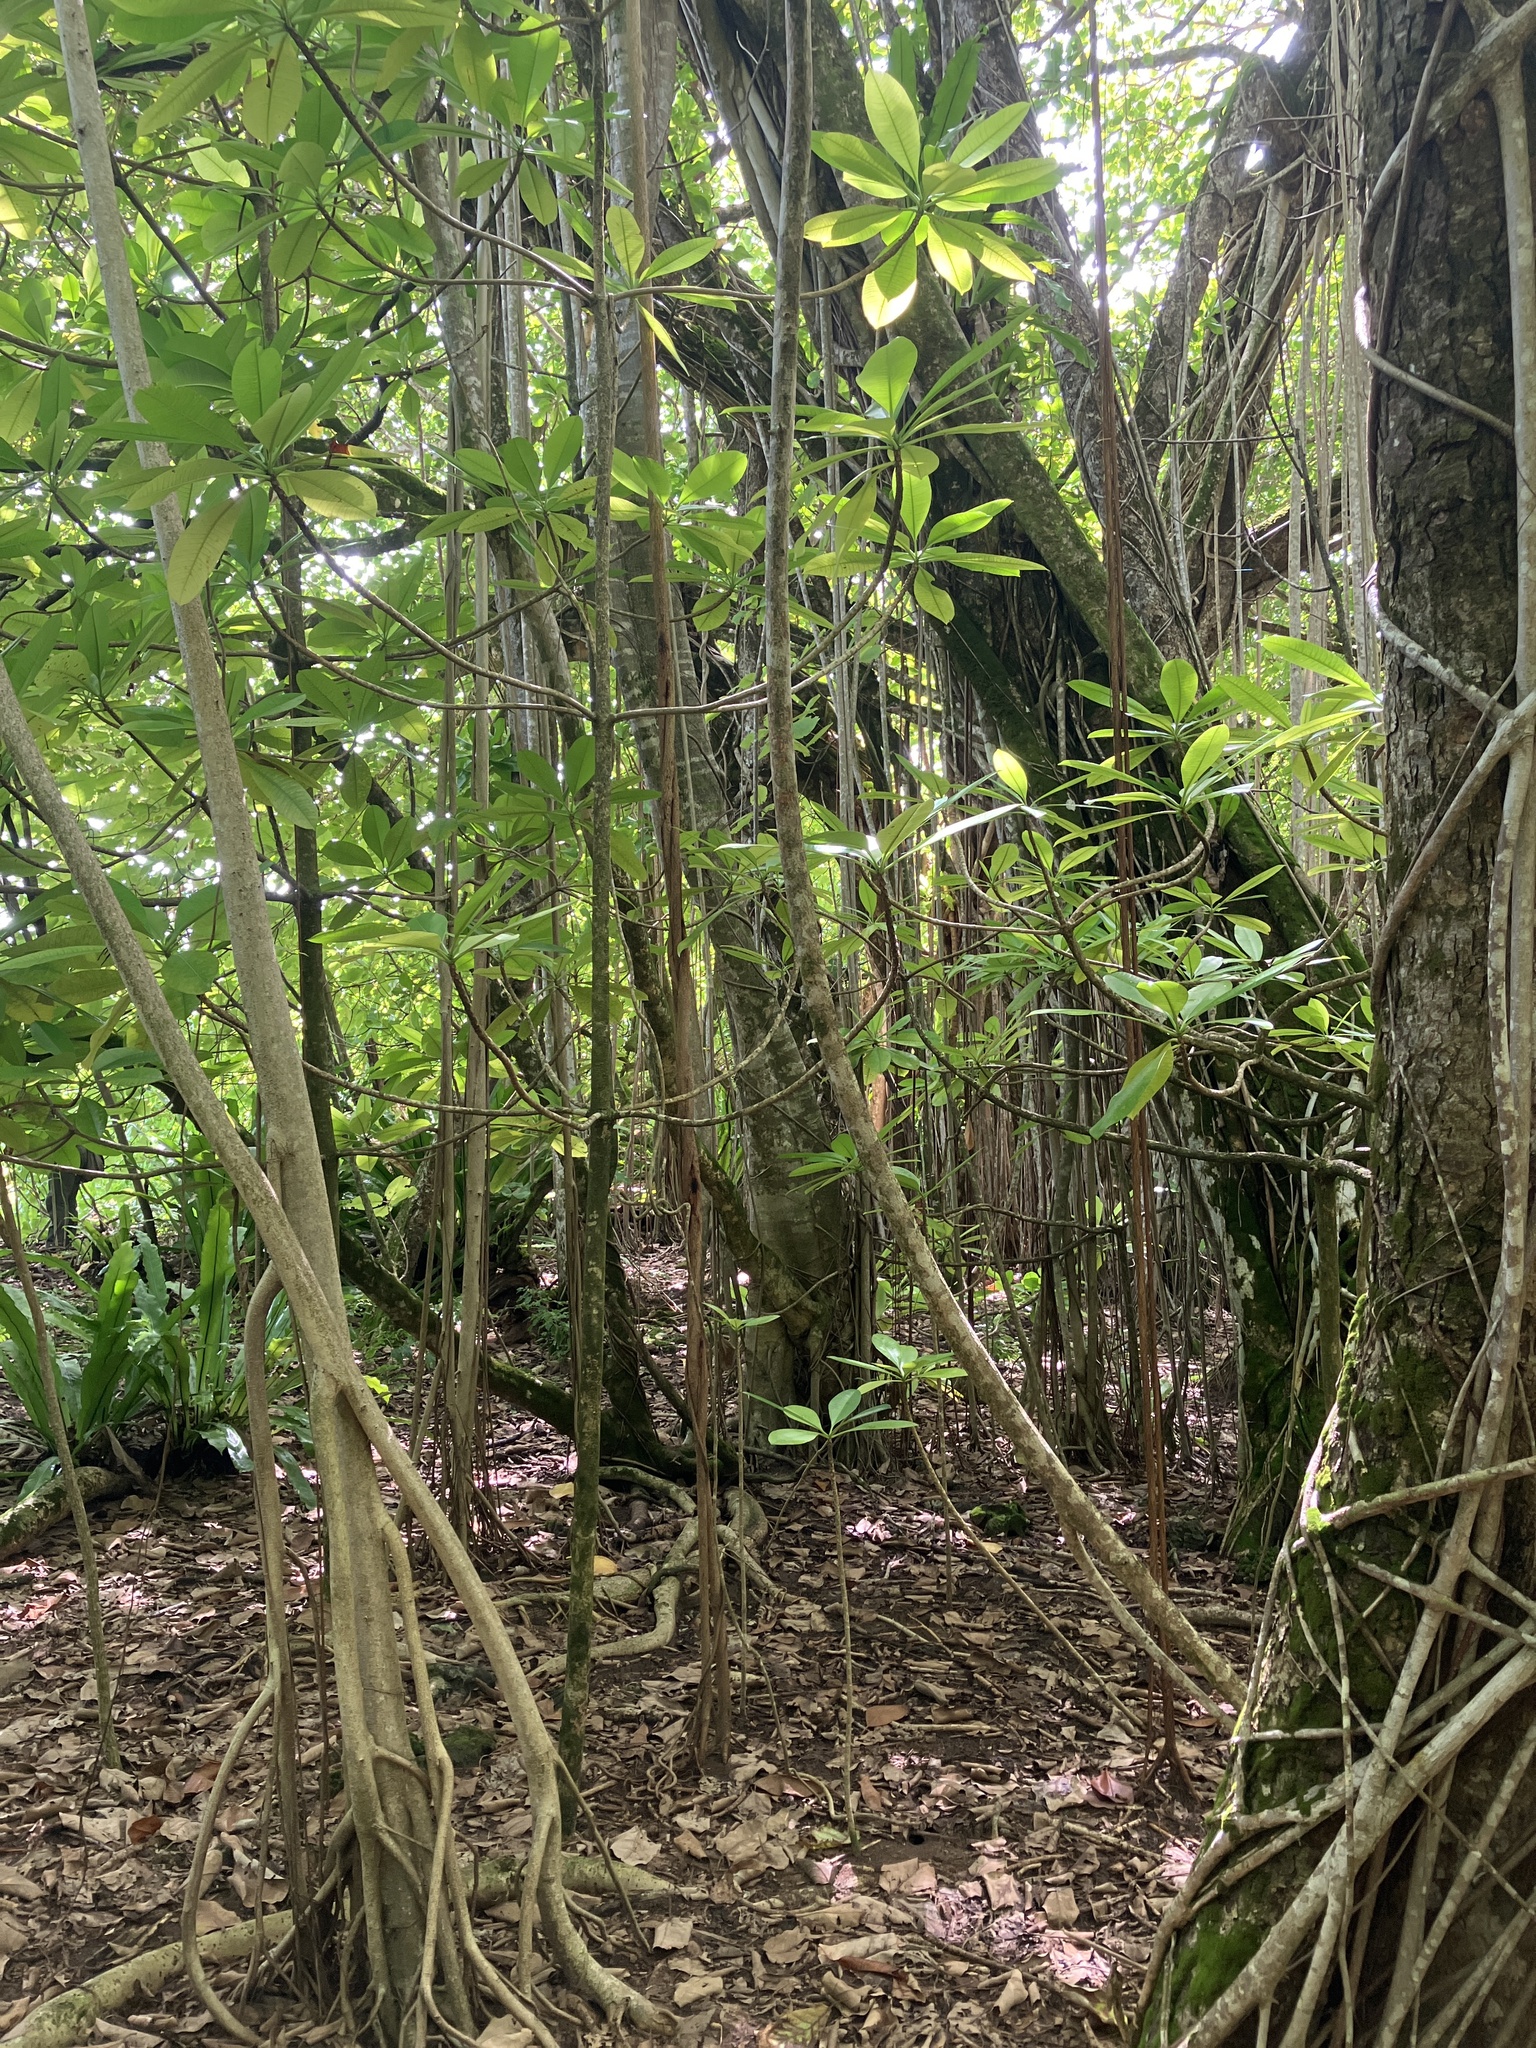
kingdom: Plantae
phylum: Tracheophyta
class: Magnoliopsida
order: Gentianales
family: Apocynaceae
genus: Ochrosia
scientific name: Ochrosia oppositifolia
